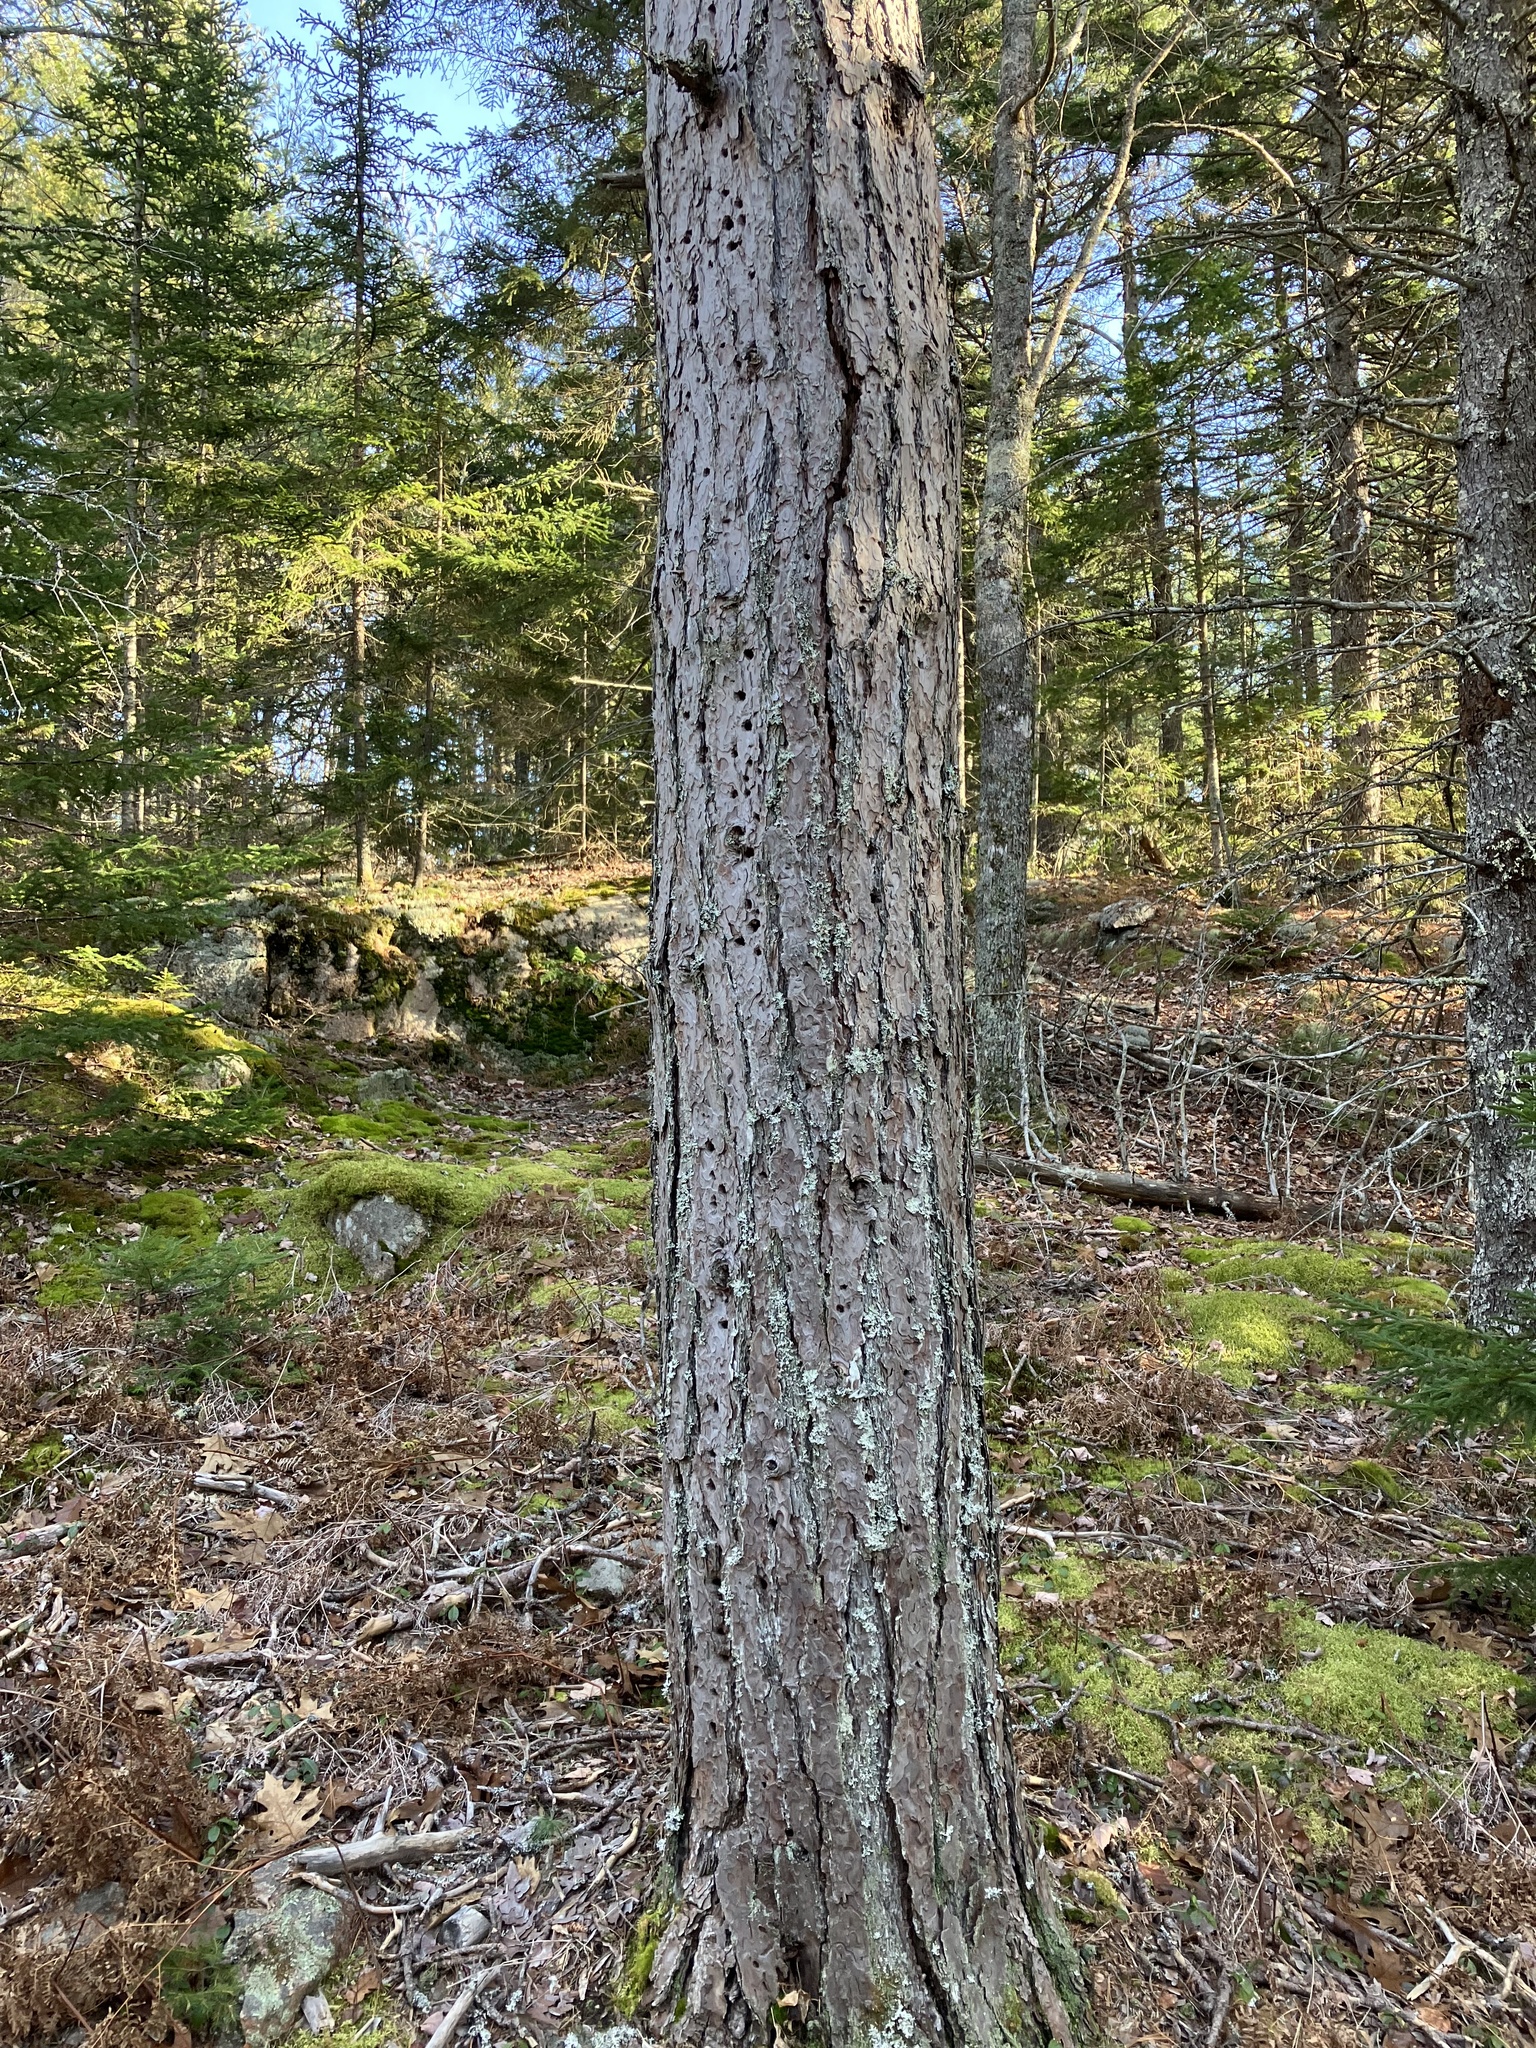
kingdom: Plantae
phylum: Tracheophyta
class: Pinopsida
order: Pinales
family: Pinaceae
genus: Pinus
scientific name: Pinus resinosa
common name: Norway pine
